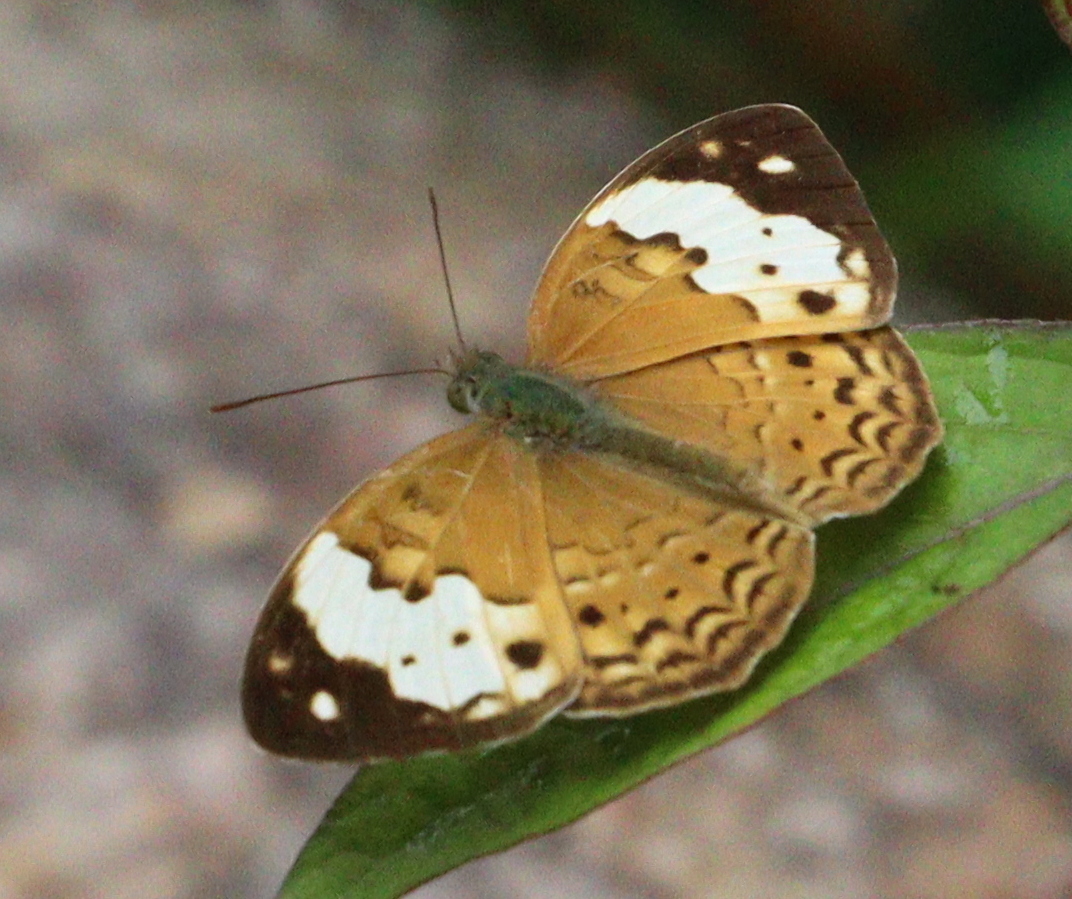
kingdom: Animalia
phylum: Arthropoda
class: Insecta
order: Lepidoptera
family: Nymphalidae
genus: Cupha
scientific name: Cupha erymanthis
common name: Rustic
